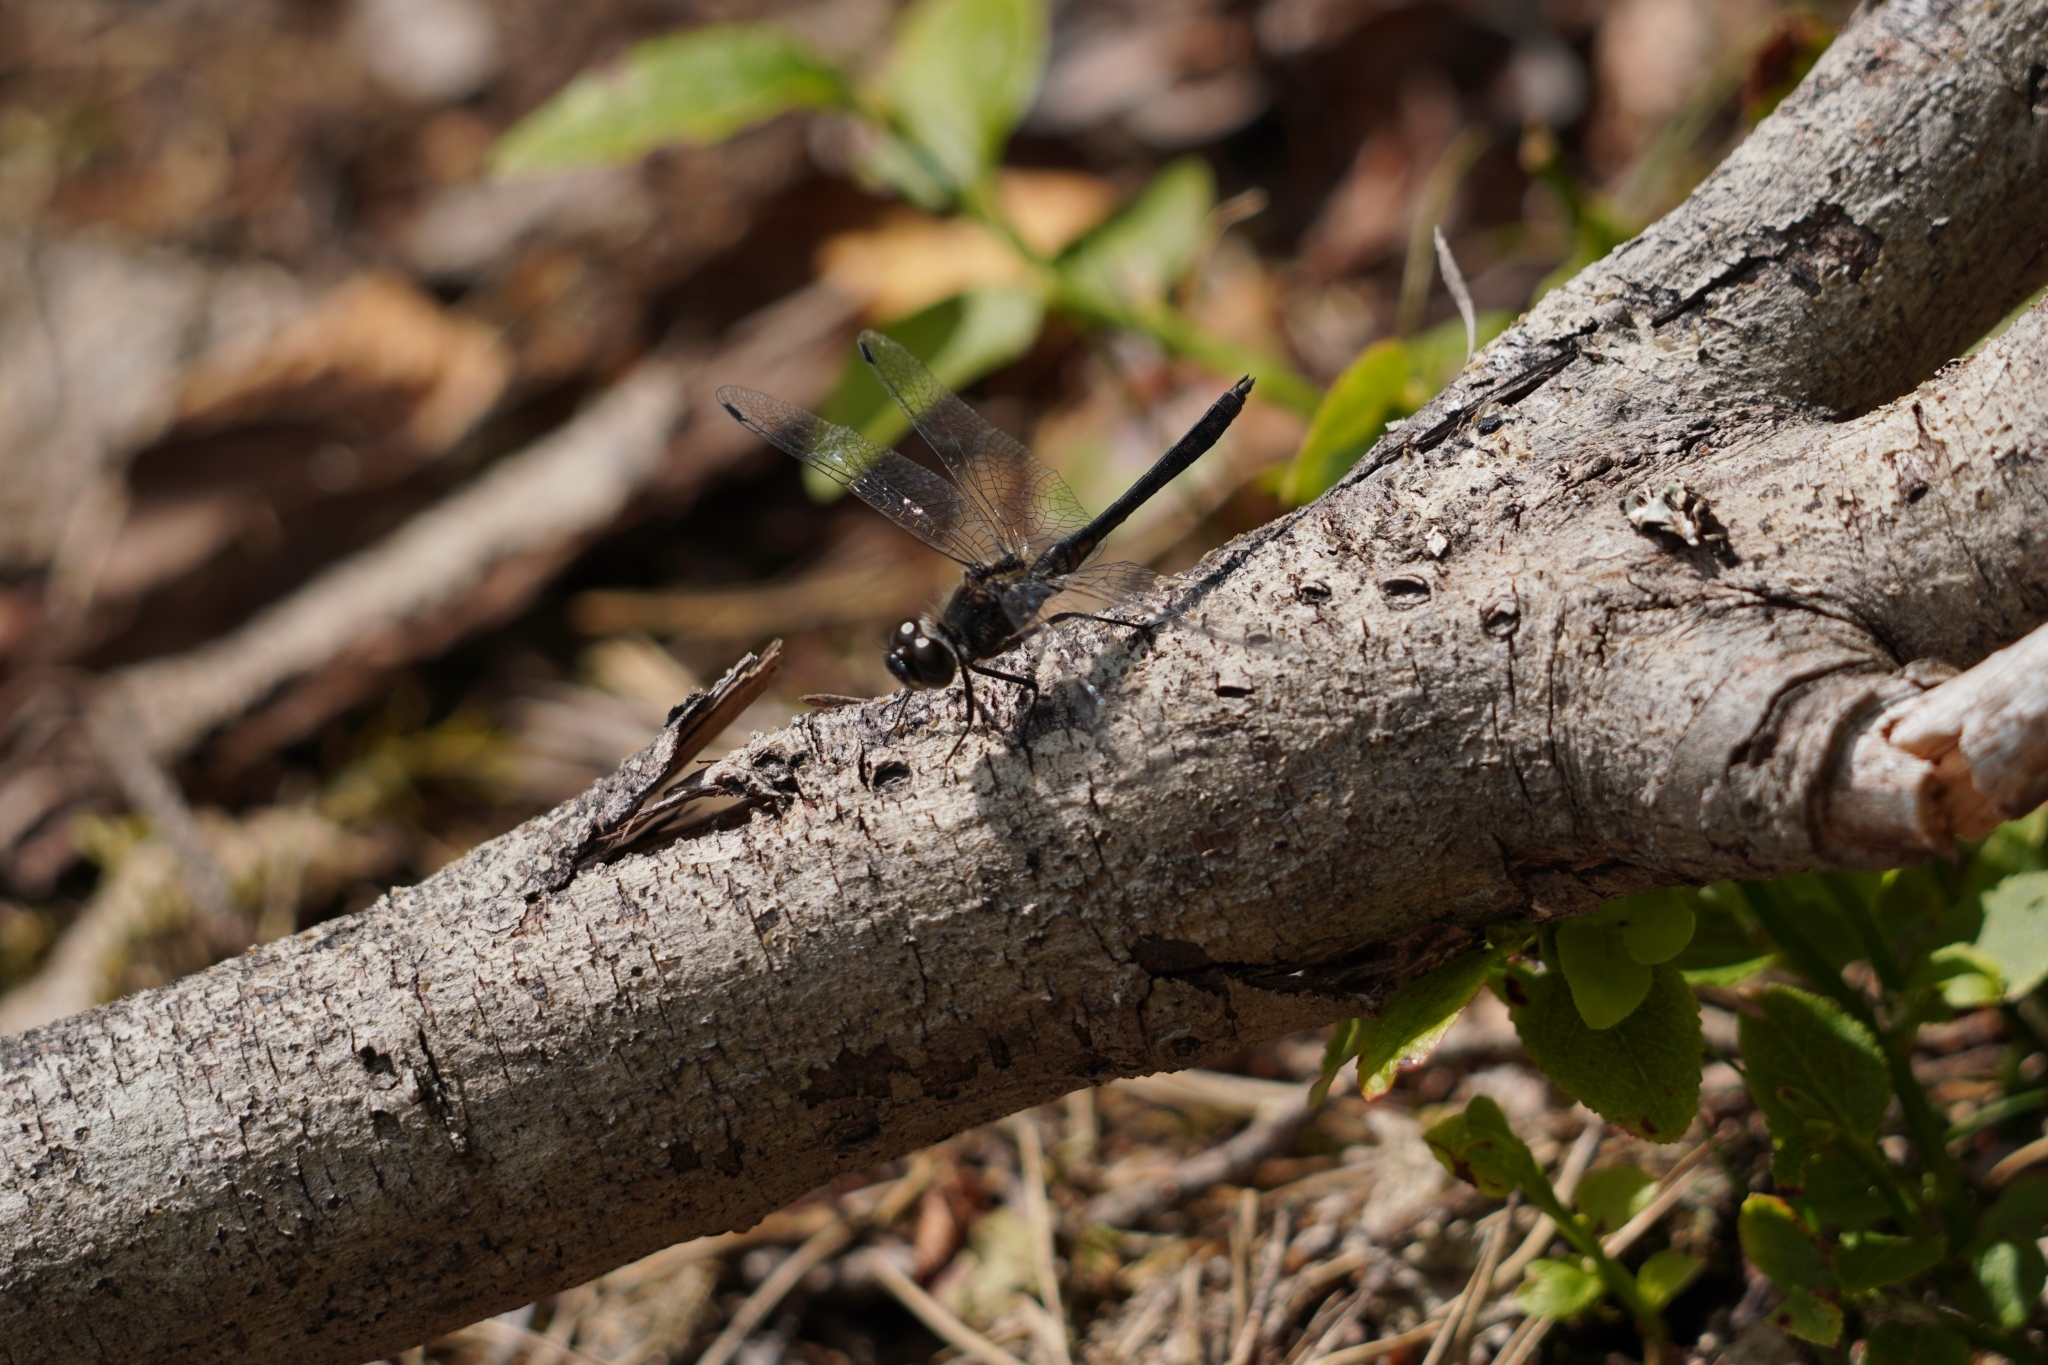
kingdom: Animalia
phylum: Arthropoda
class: Insecta
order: Odonata
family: Libellulidae
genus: Sympetrum
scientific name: Sympetrum danae
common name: Black darter
